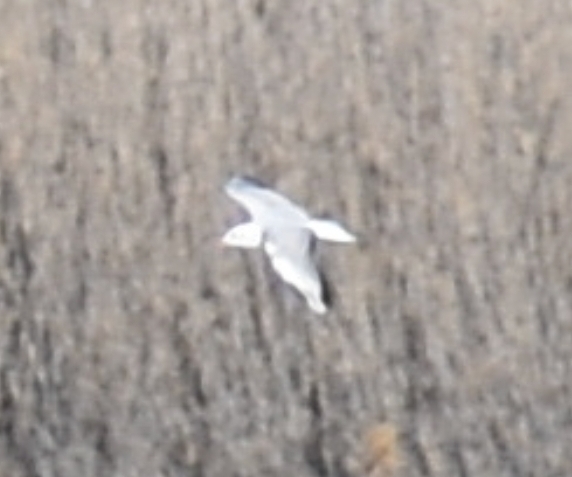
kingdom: Animalia
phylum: Chordata
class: Aves
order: Charadriiformes
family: Laridae
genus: Chroicocephalus
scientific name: Chroicocephalus ridibundus
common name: Black-headed gull
